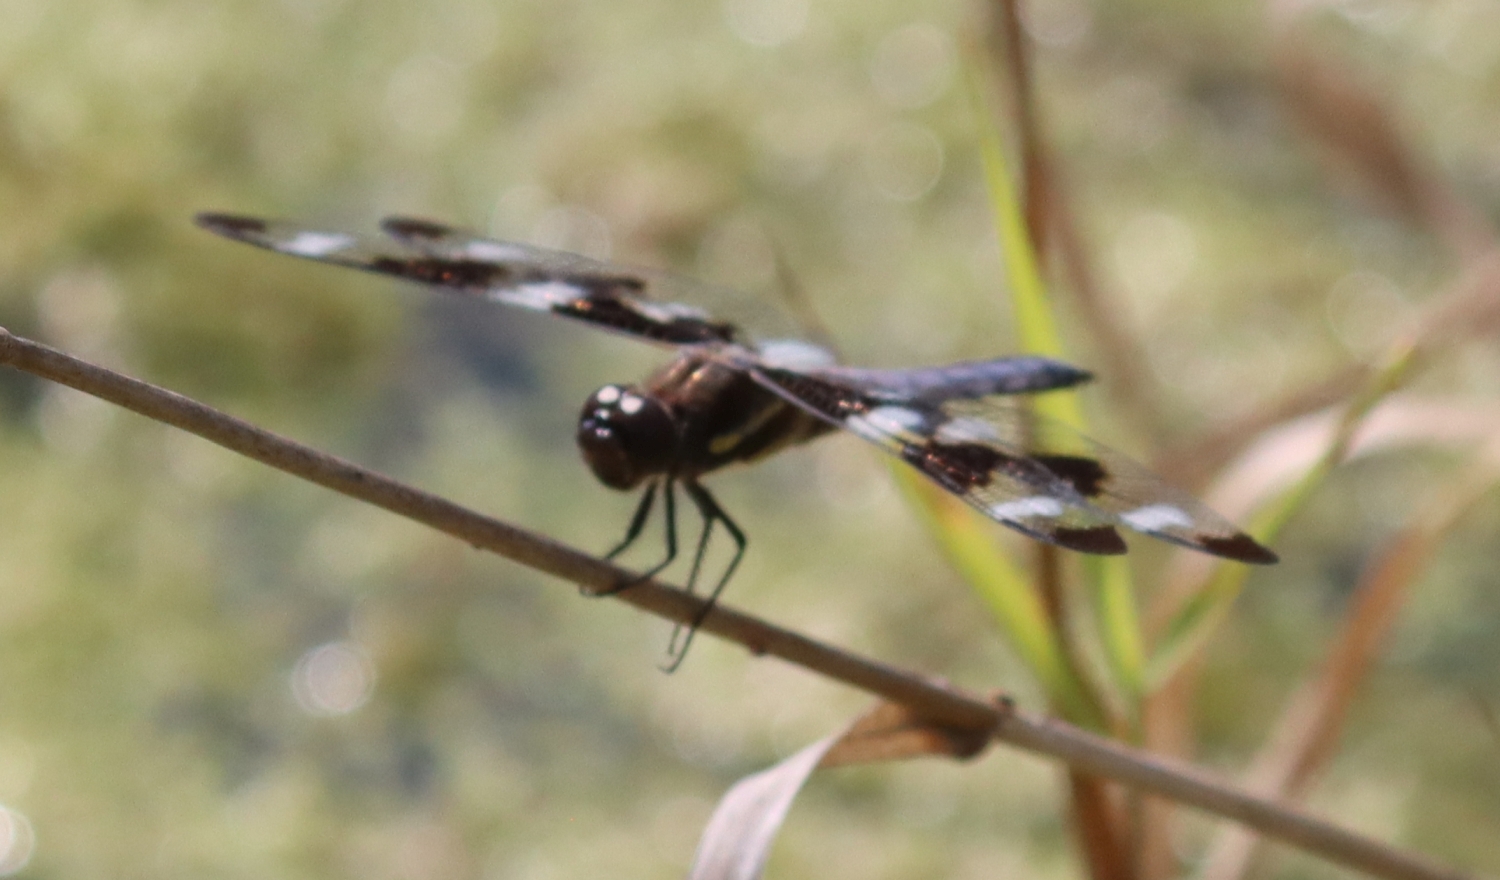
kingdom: Animalia
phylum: Arthropoda
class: Insecta
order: Odonata
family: Libellulidae
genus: Libellula
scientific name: Libellula pulchella
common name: Twelve-spotted skimmer
